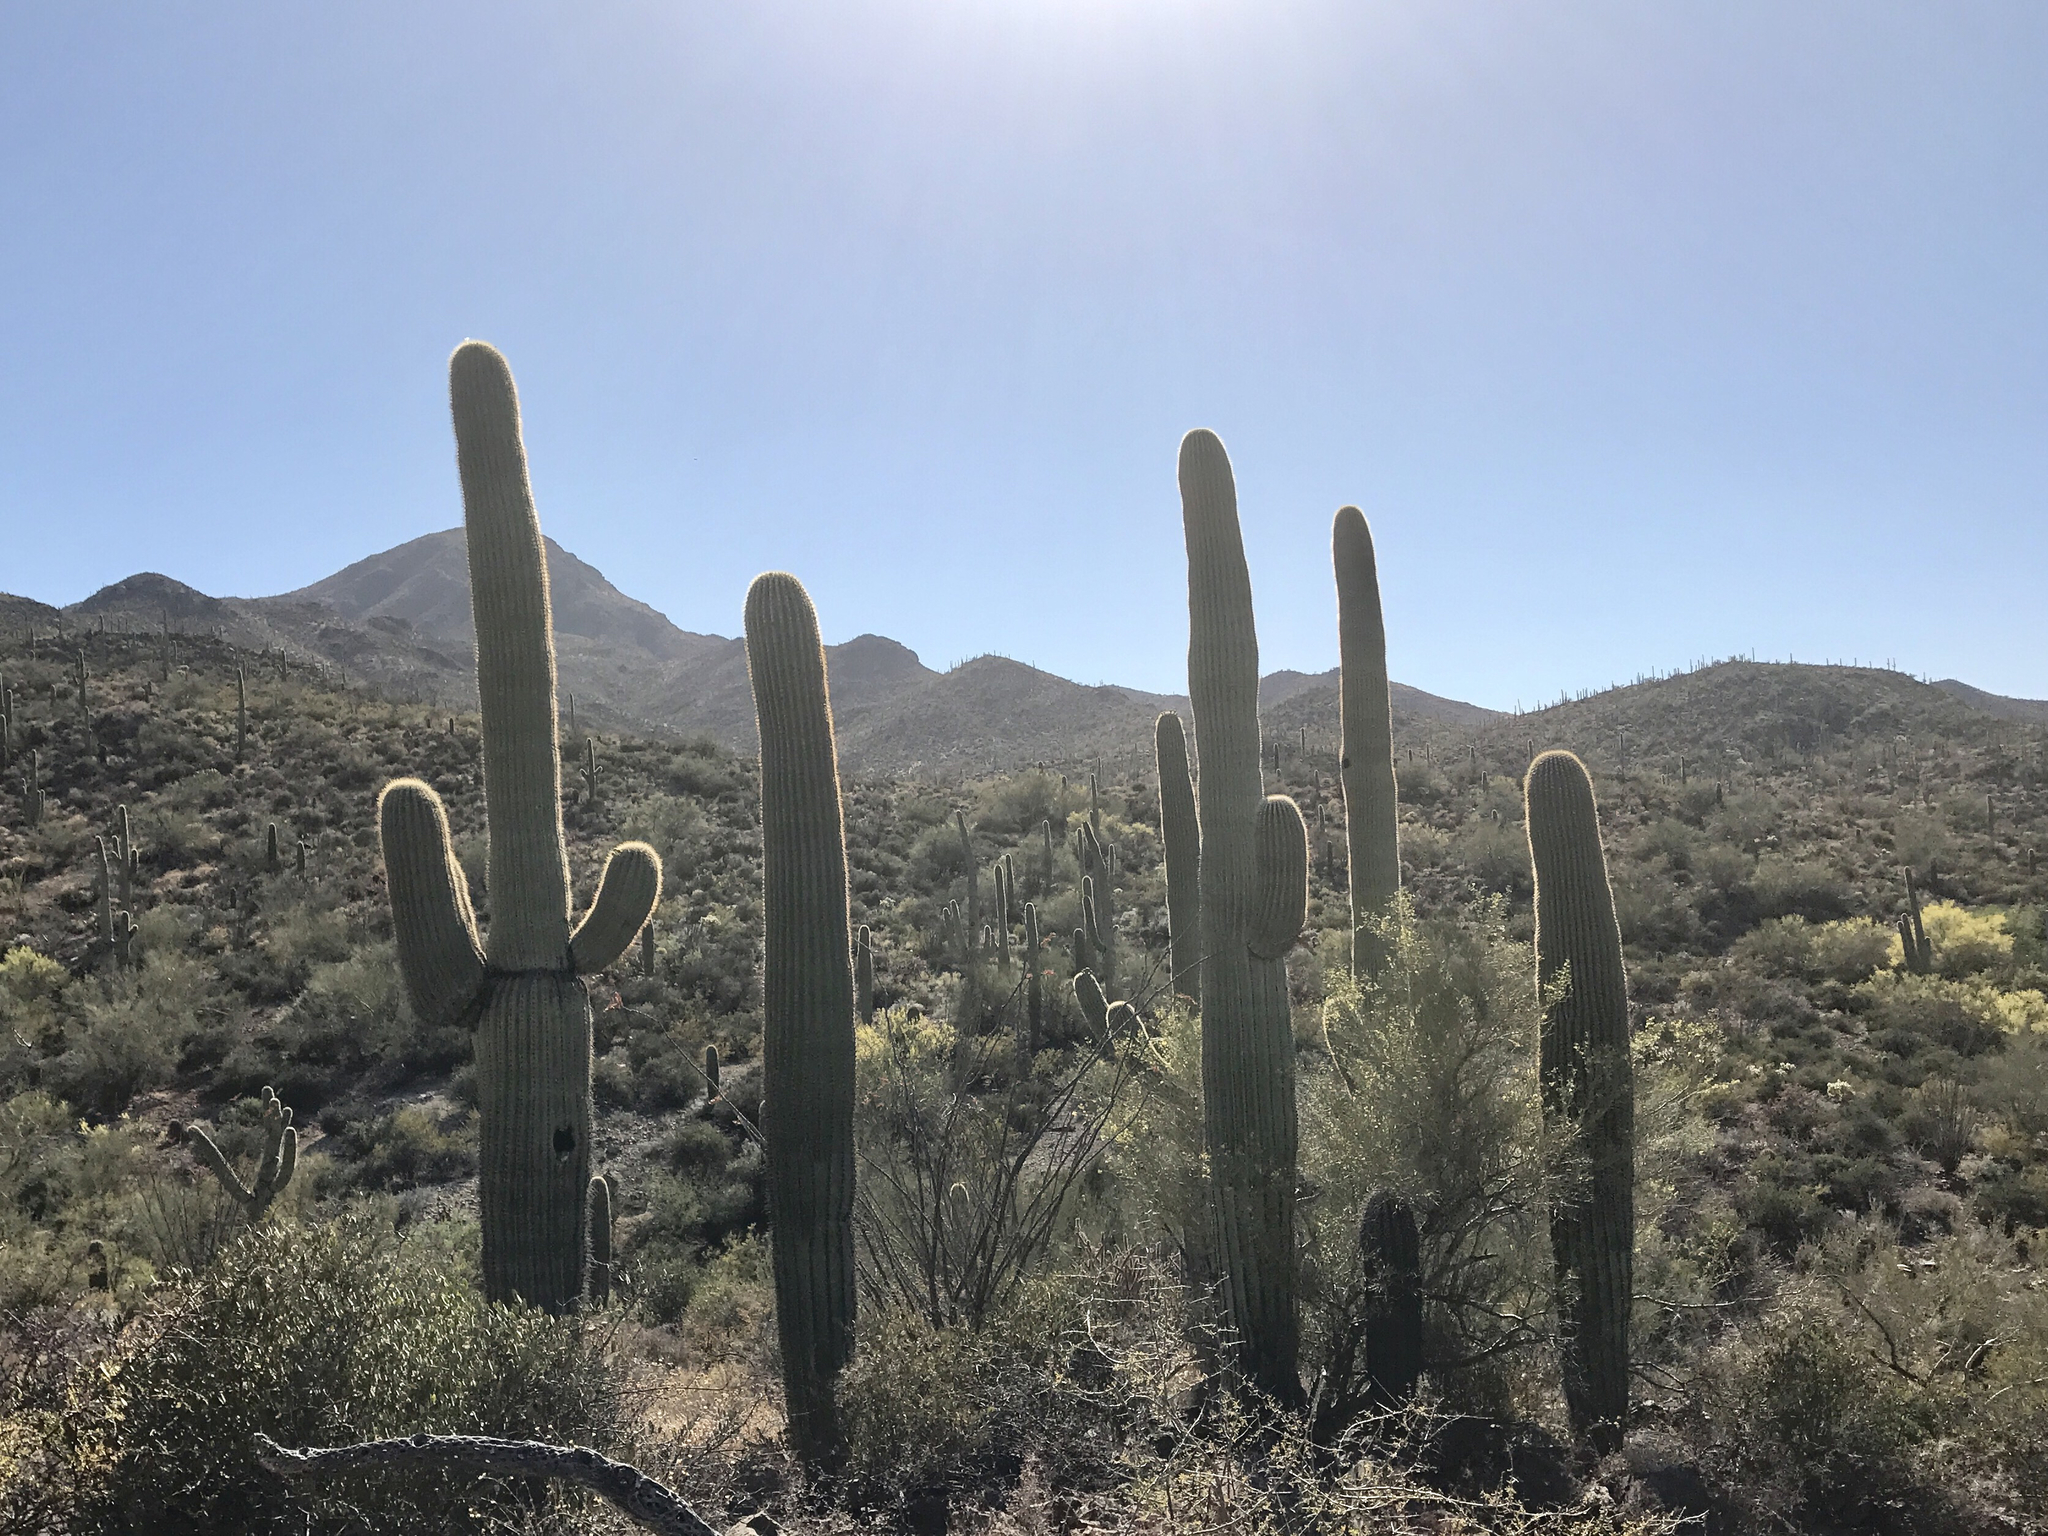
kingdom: Plantae
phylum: Tracheophyta
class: Magnoliopsida
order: Caryophyllales
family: Cactaceae
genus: Carnegiea
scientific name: Carnegiea gigantea
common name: Saguaro
